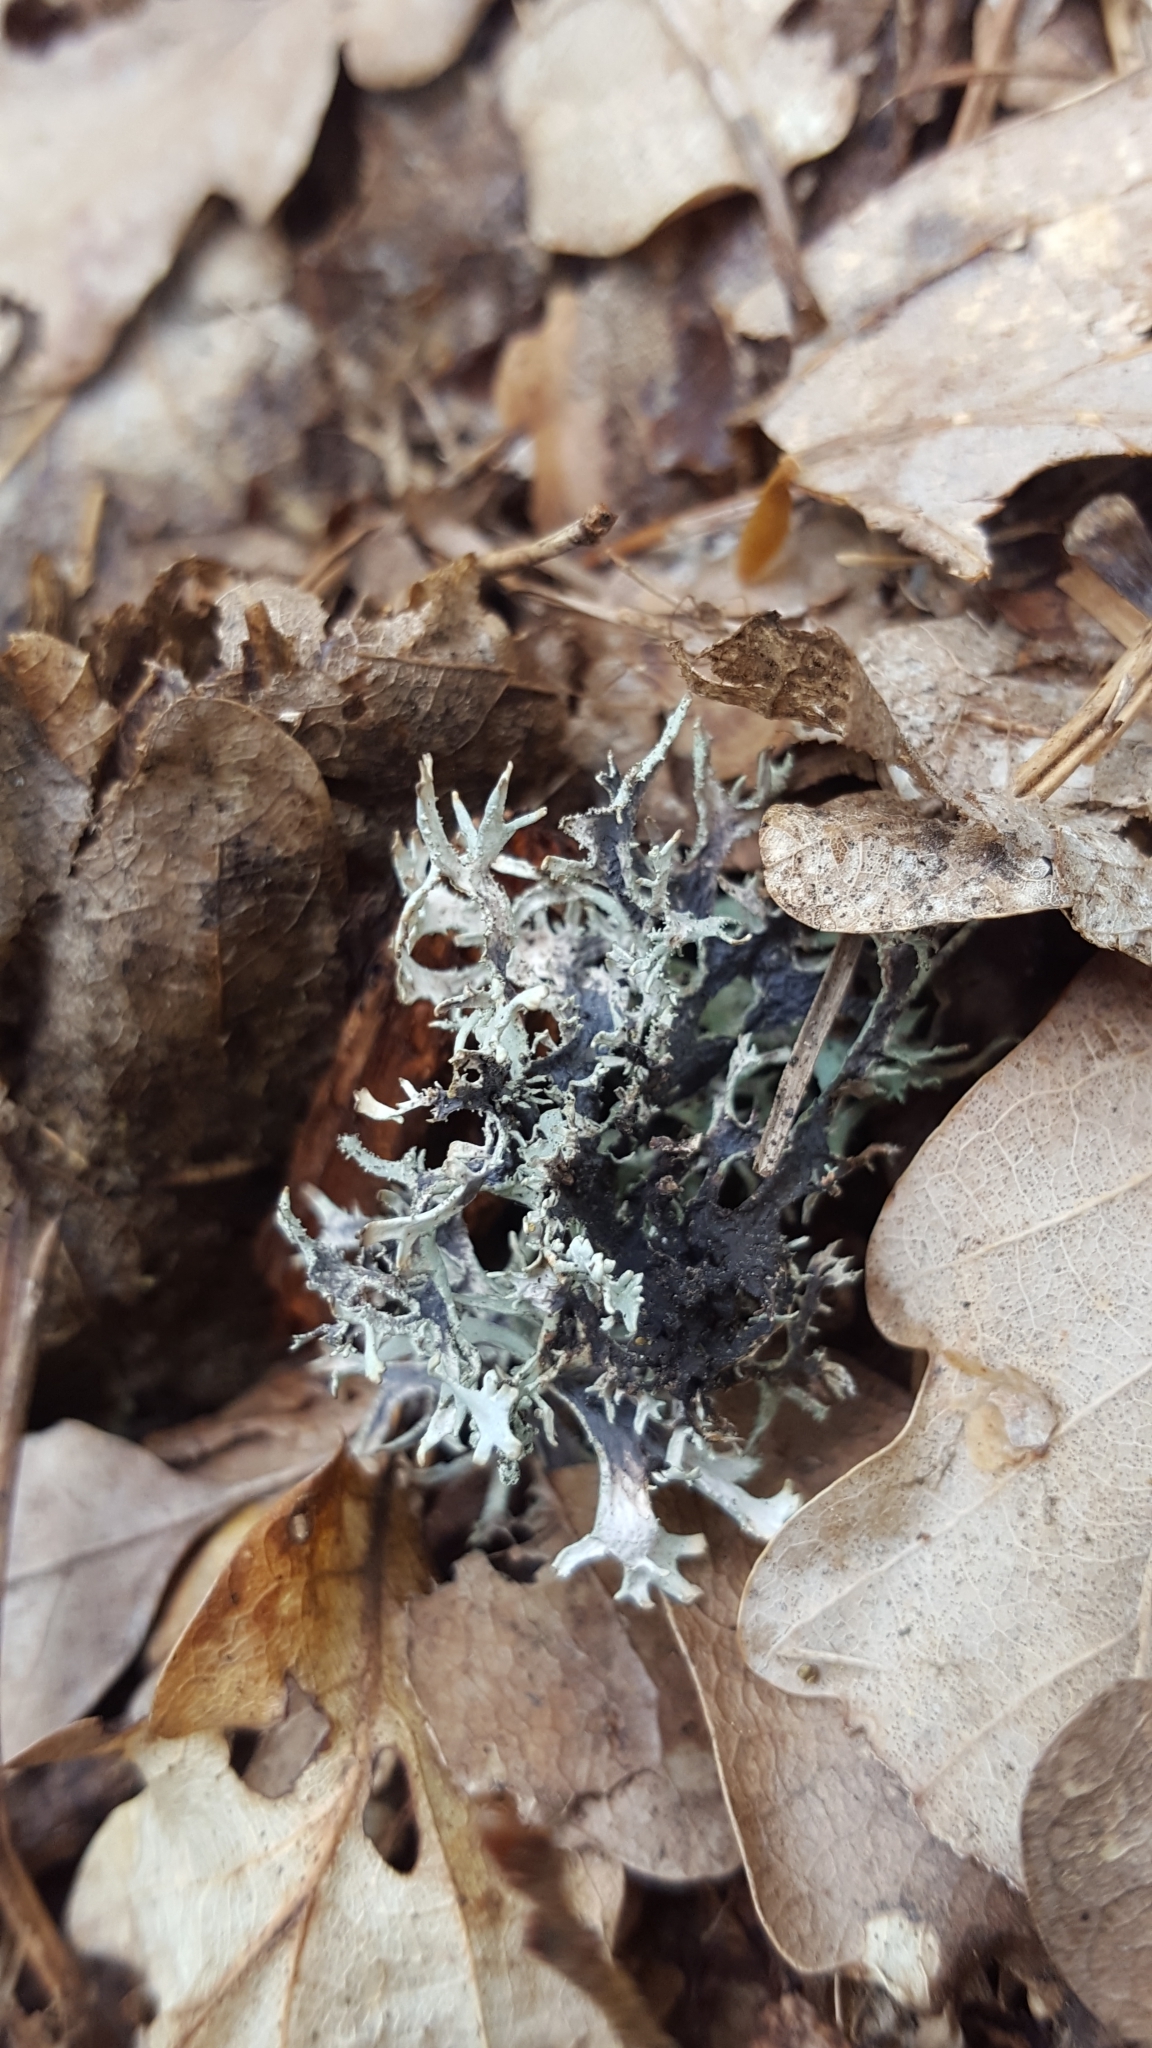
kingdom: Fungi
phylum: Ascomycota
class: Lecanoromycetes
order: Lecanorales
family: Parmeliaceae
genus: Pseudevernia
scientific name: Pseudevernia furfuracea
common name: Tree moss
